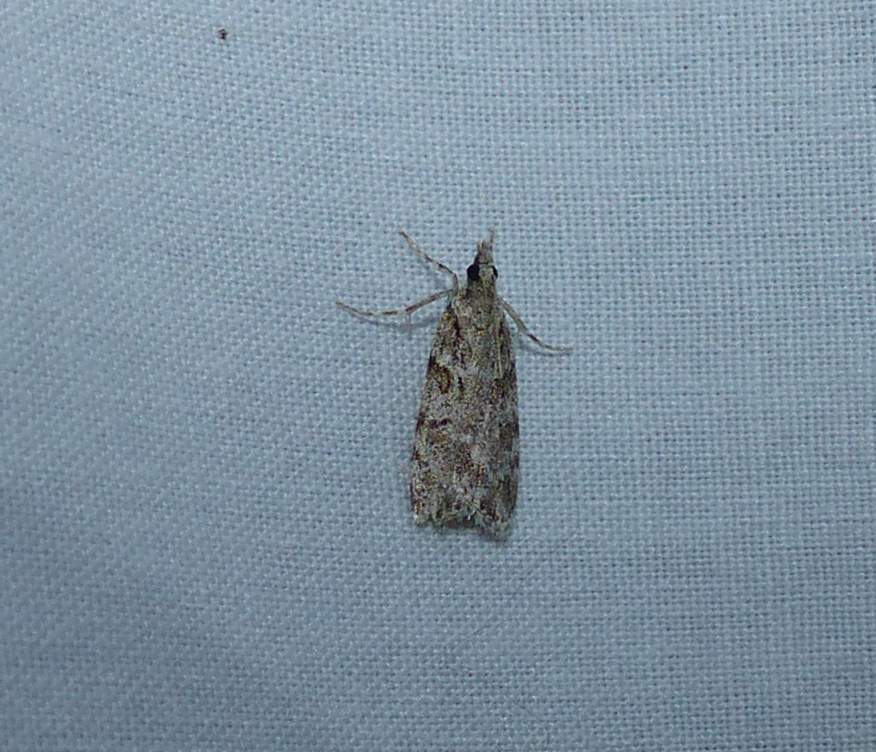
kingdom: Animalia
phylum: Arthropoda
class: Insecta
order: Lepidoptera
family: Crambidae
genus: Scoparia
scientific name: Scoparia biplagialis
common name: Double-striped scoparia moth
